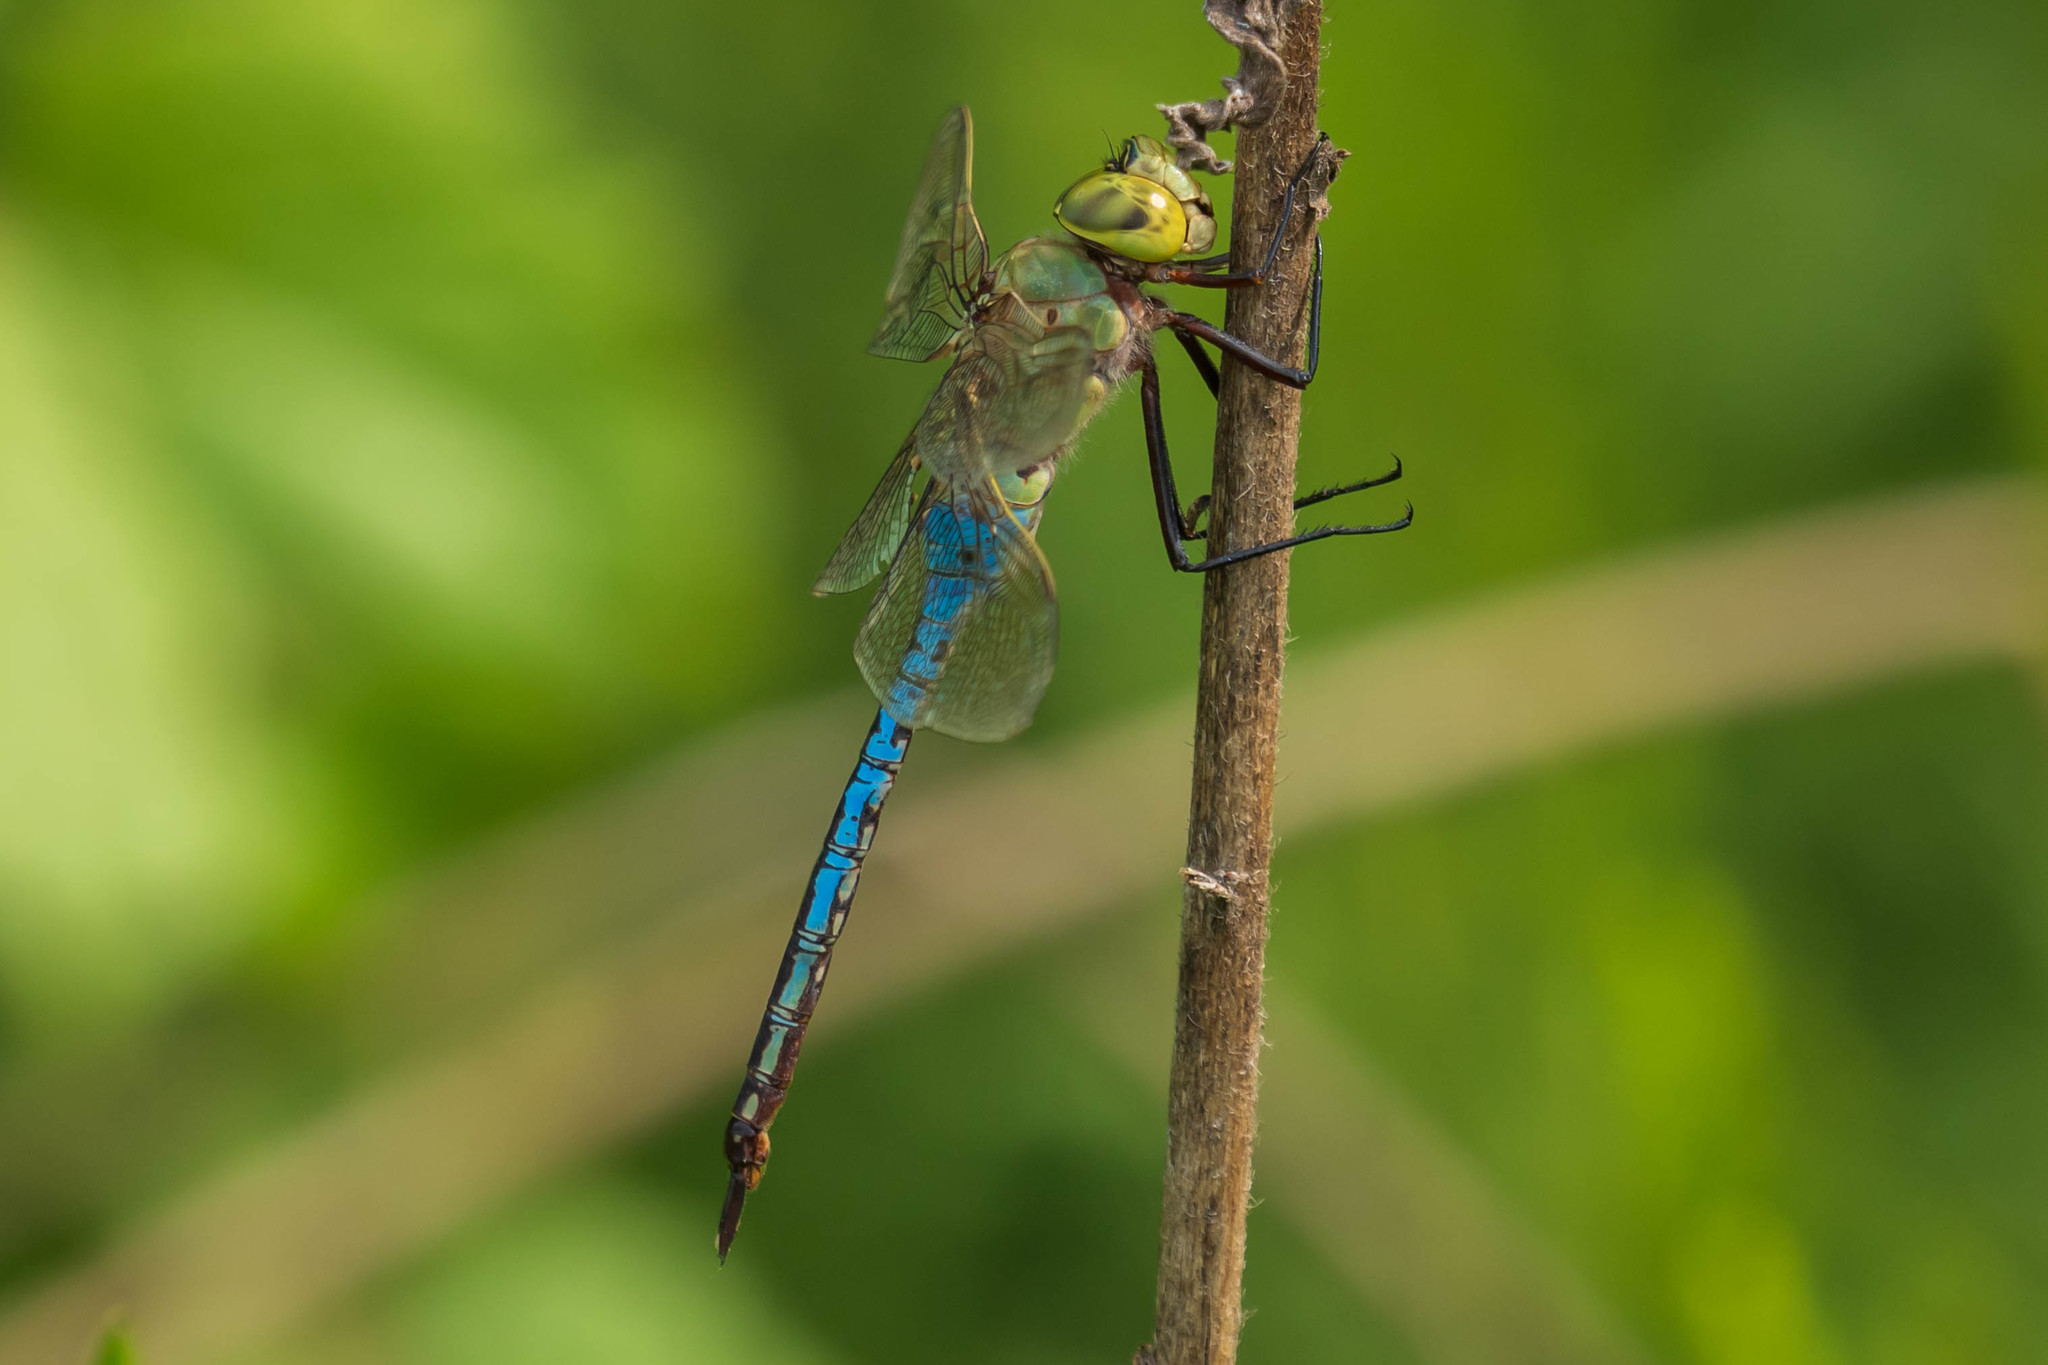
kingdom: Animalia
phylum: Arthropoda
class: Insecta
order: Odonata
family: Aeshnidae
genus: Anax
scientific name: Anax junius
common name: Common green darner
